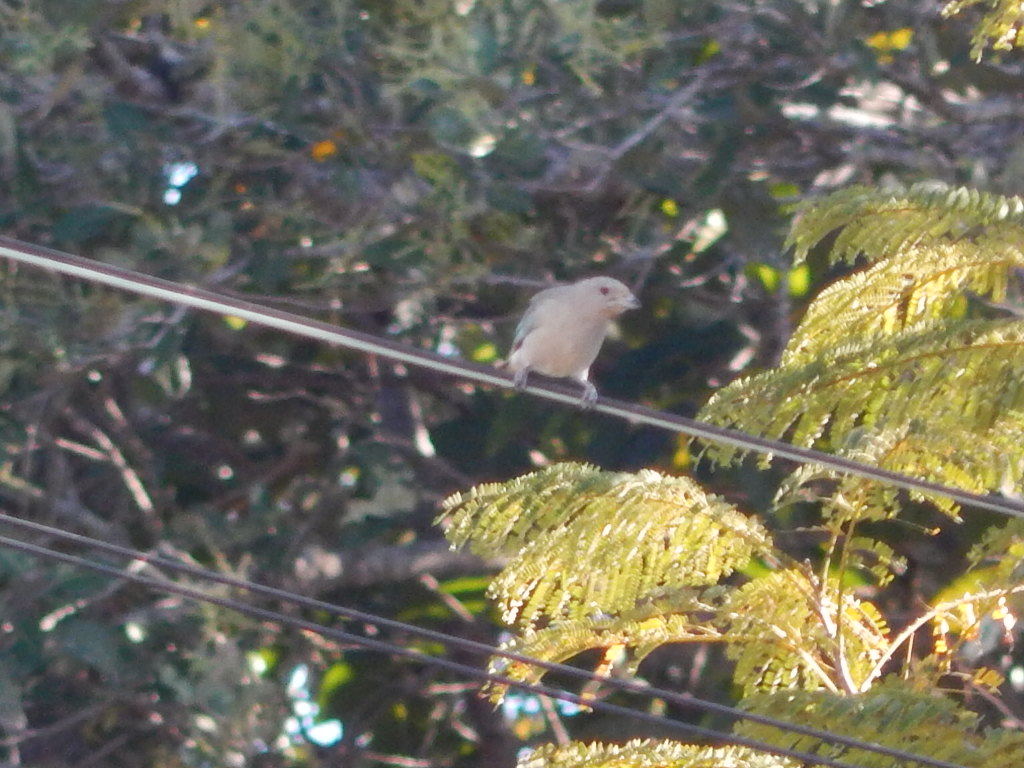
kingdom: Animalia
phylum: Chordata
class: Aves
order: Passeriformes
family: Thraupidae
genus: Thraupis
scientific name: Thraupis sayaca
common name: Sayaca tanager
